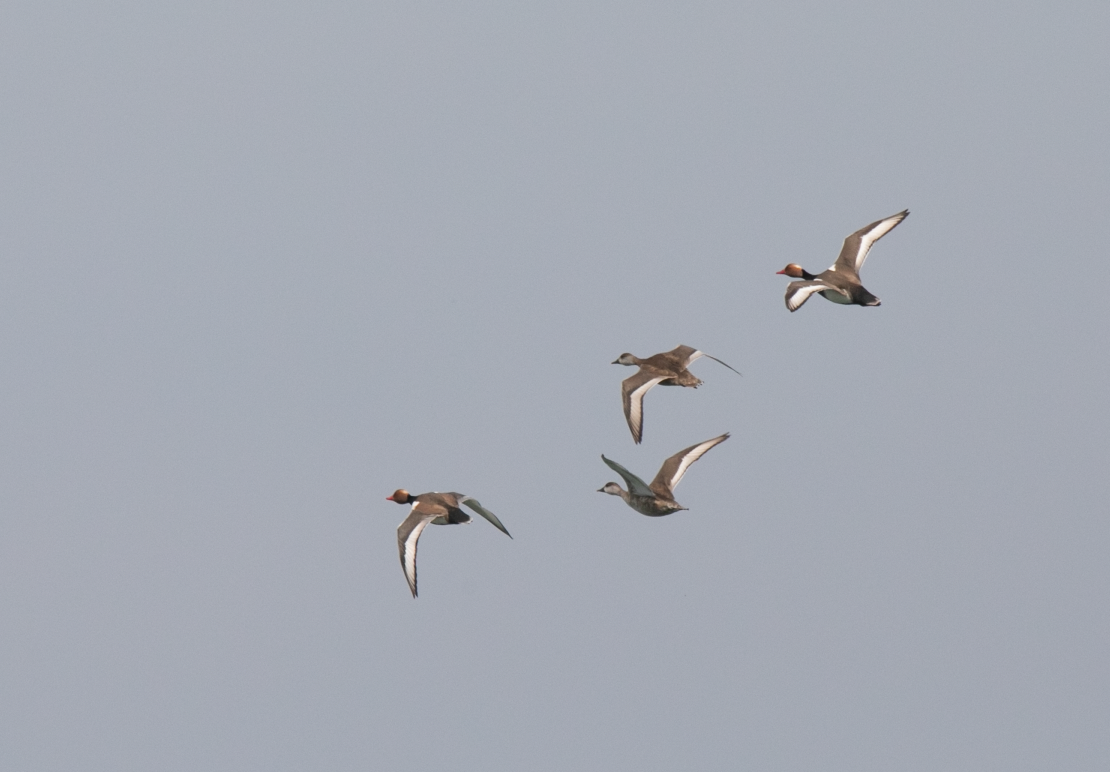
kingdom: Animalia
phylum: Chordata
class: Aves
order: Anseriformes
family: Anatidae
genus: Netta
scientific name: Netta rufina
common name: Red-crested pochard
